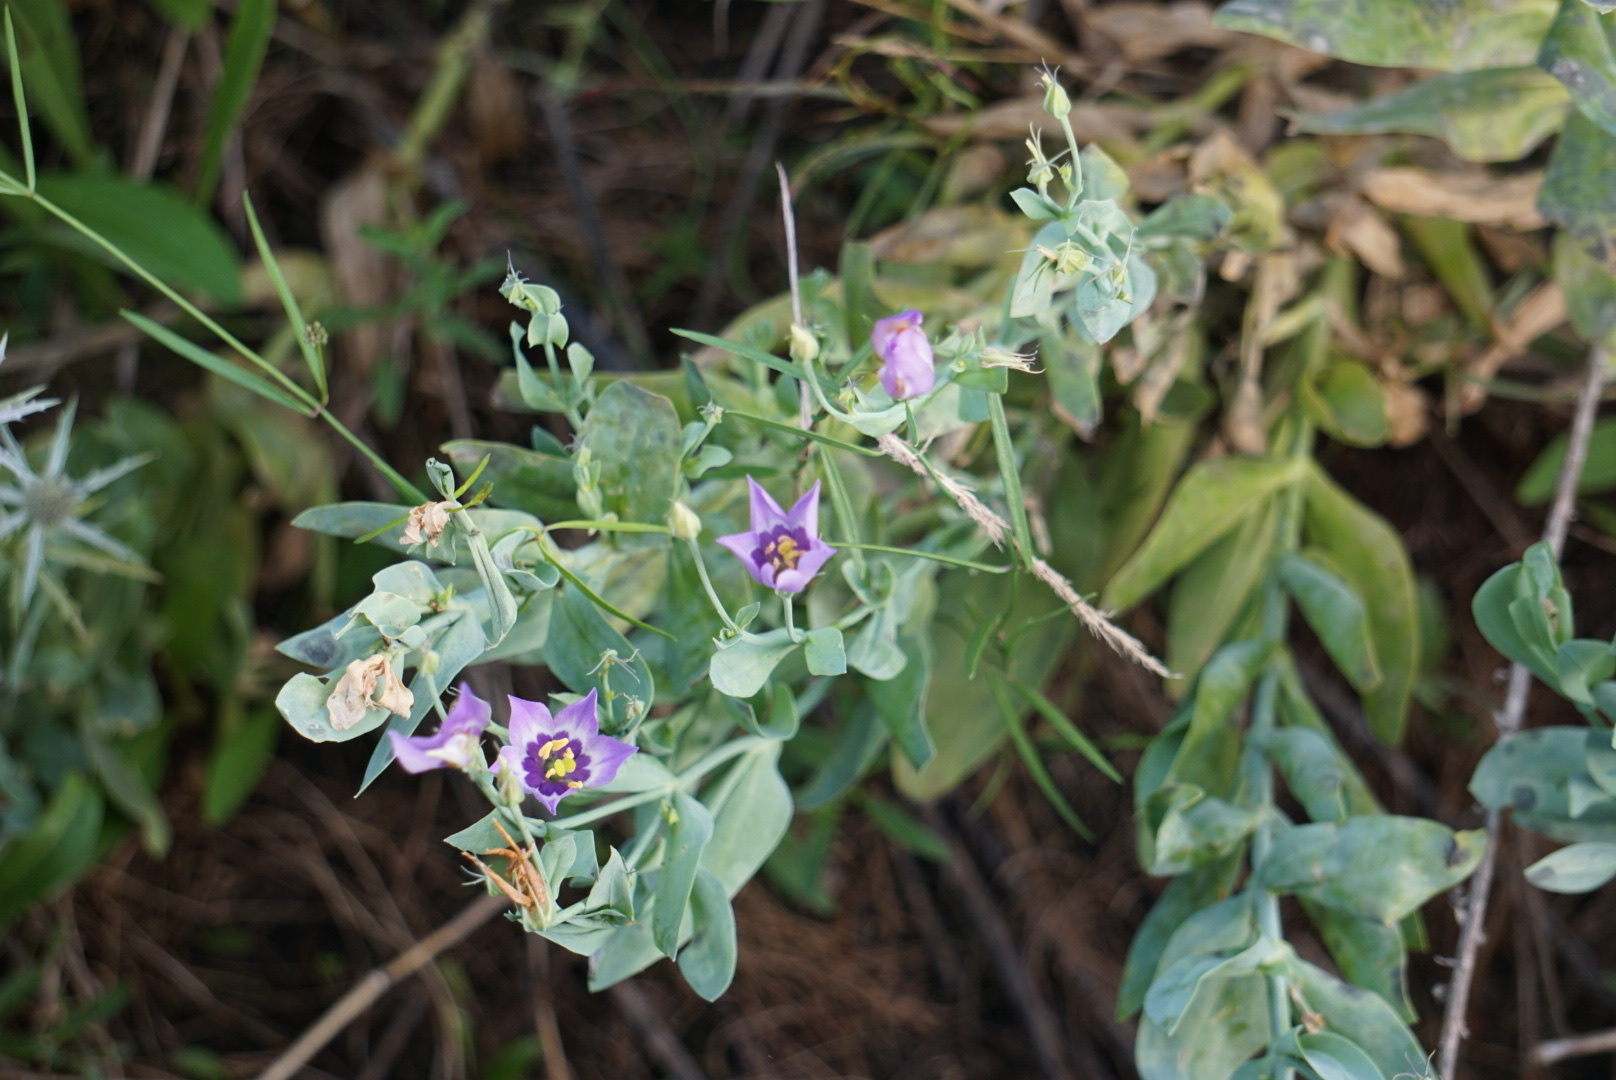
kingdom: Plantae
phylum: Tracheophyta
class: Magnoliopsida
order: Gentianales
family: Gentianaceae
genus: Eustoma
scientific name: Eustoma exaltatum
